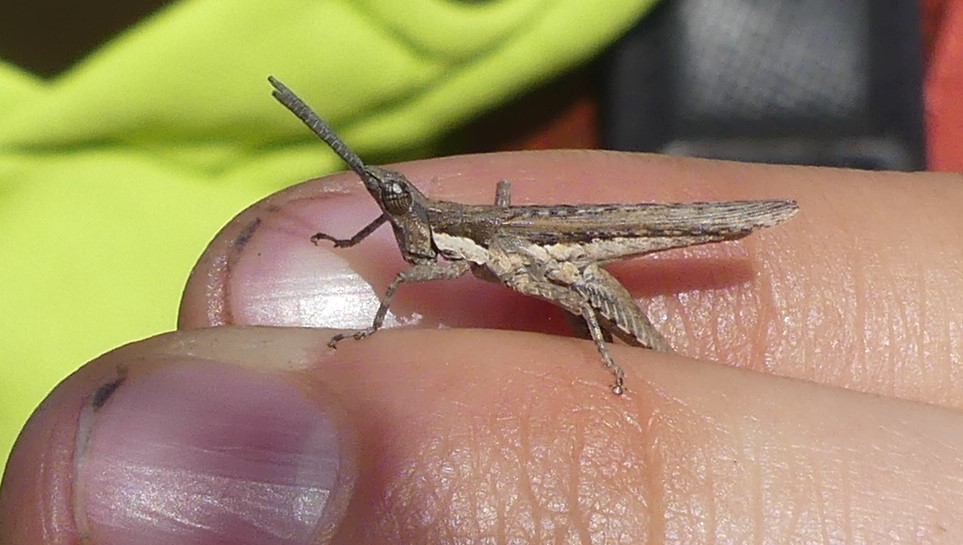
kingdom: Animalia
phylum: Arthropoda
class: Insecta
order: Orthoptera
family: Pyrgomorphidae
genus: Pyrgomorpha
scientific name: Pyrgomorpha conica
